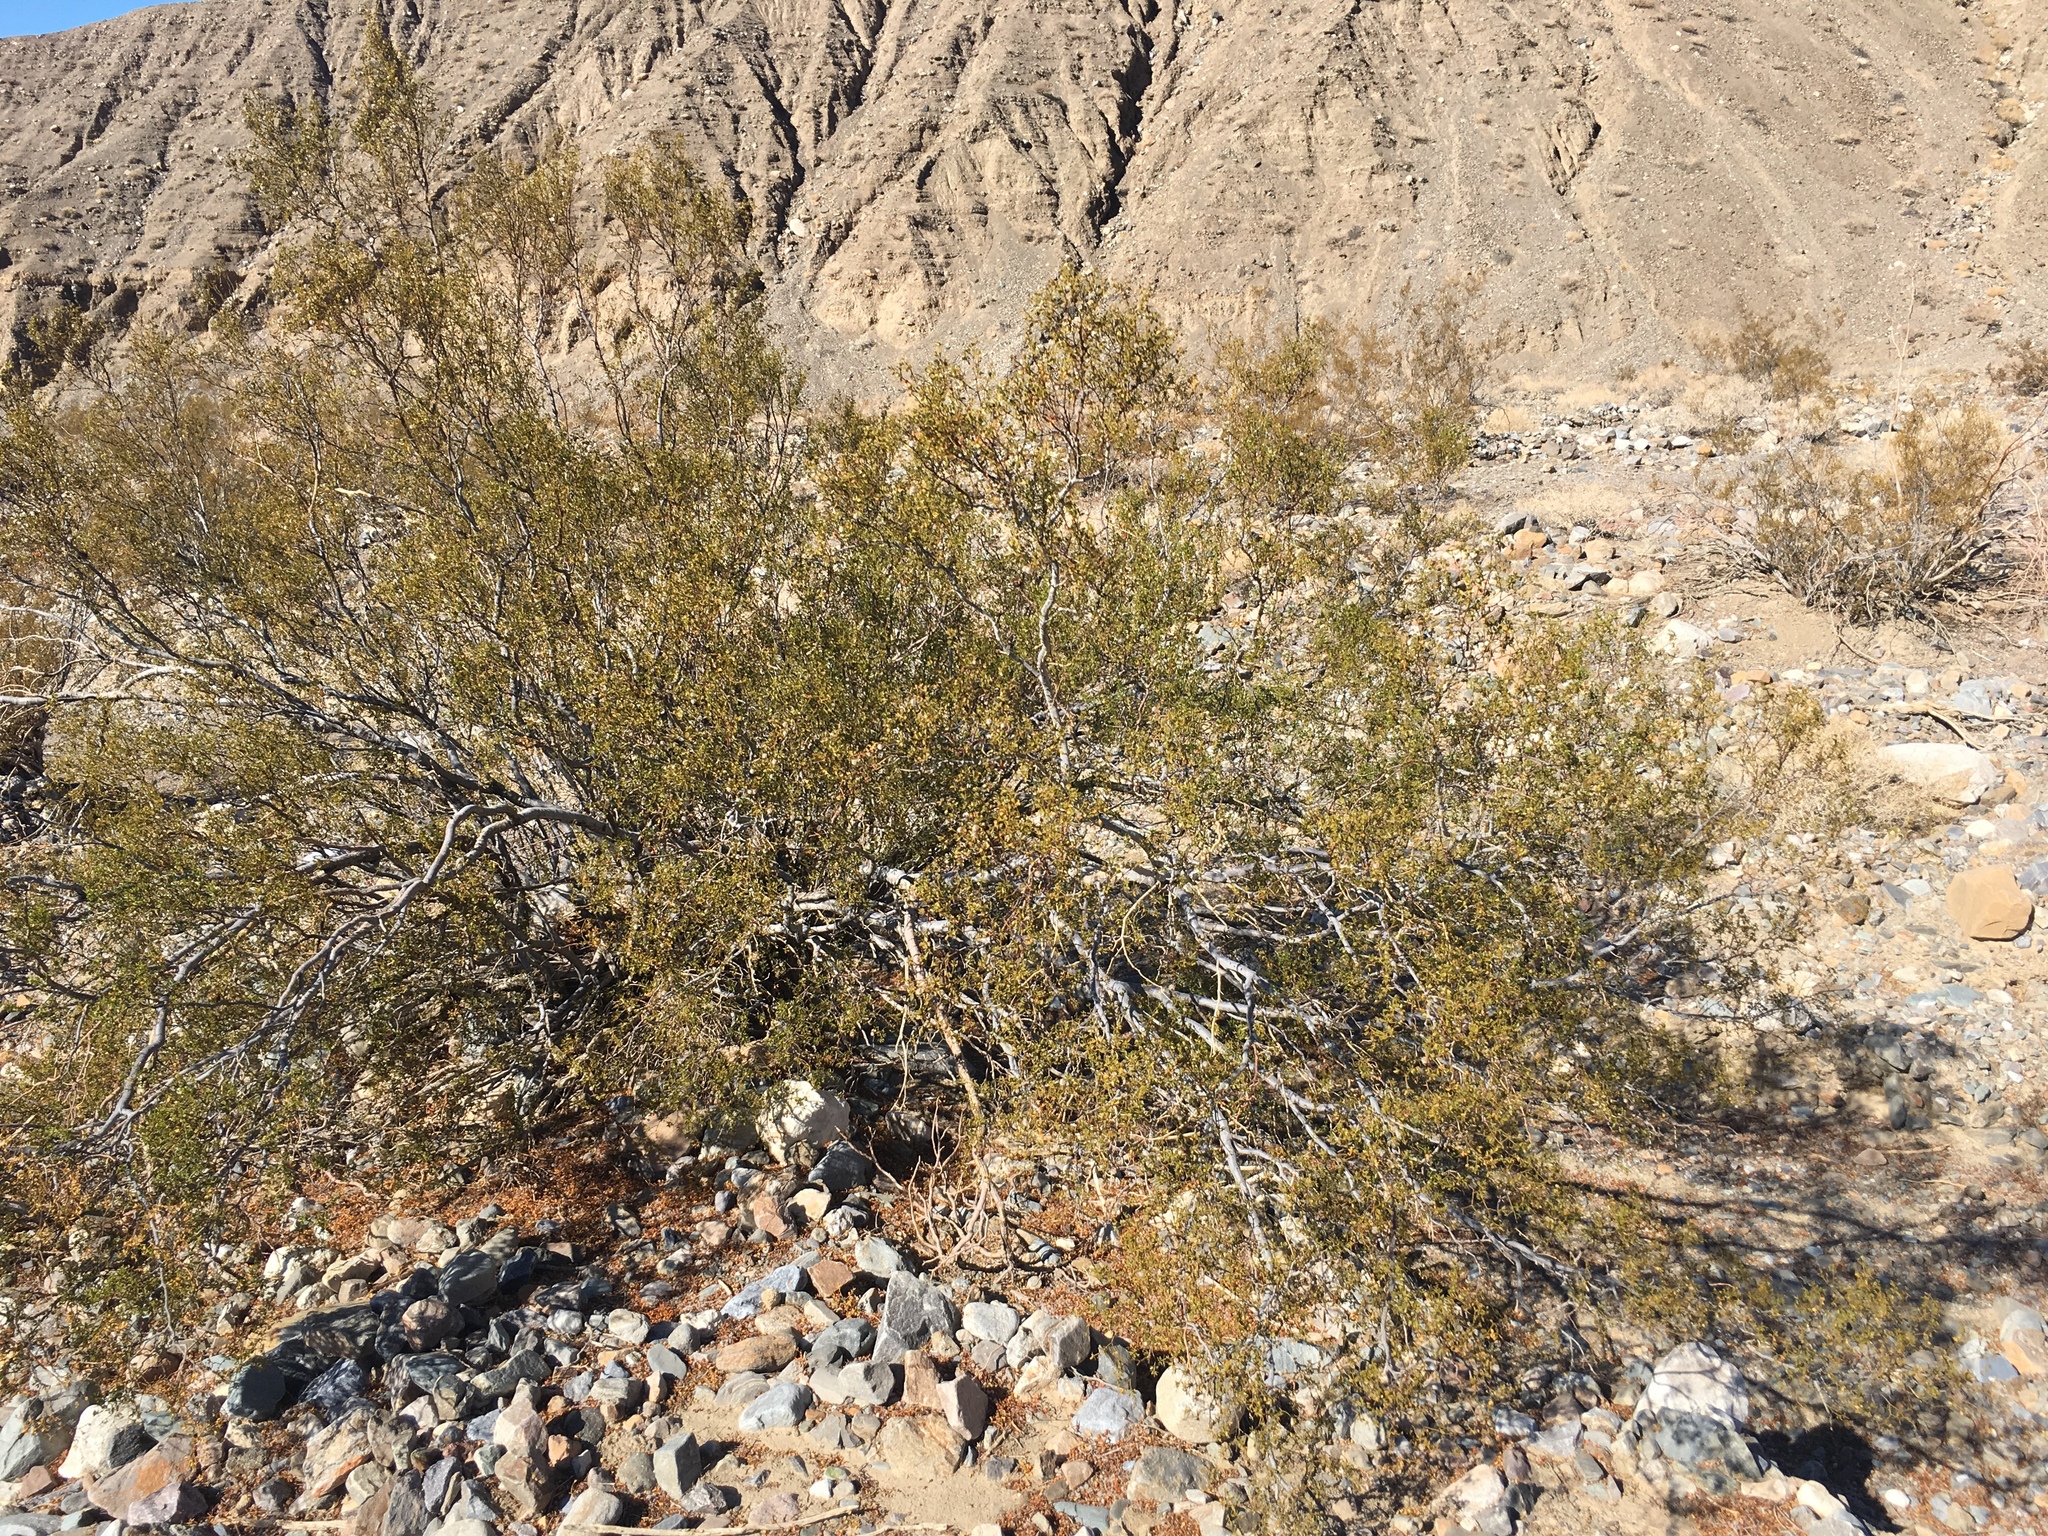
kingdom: Plantae
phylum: Tracheophyta
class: Magnoliopsida
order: Zygophyllales
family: Zygophyllaceae
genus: Larrea
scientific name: Larrea tridentata
